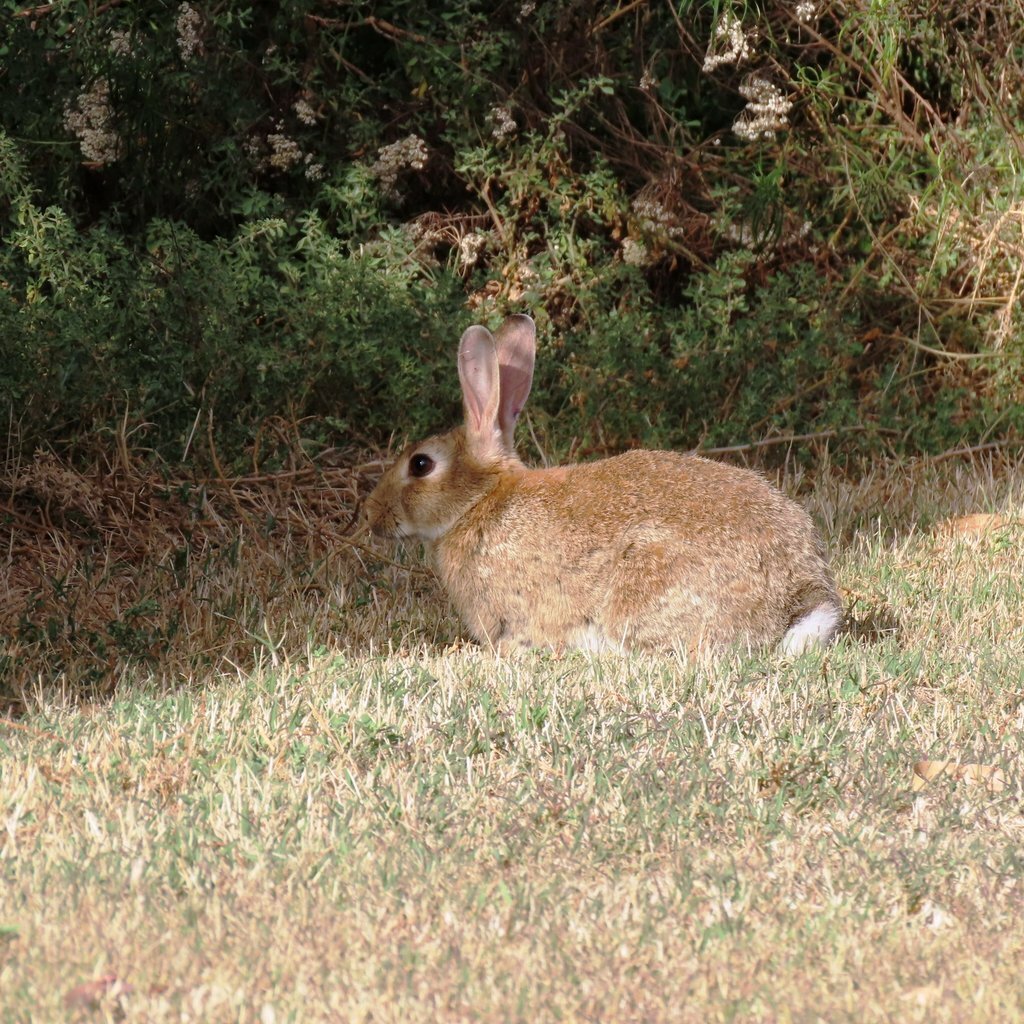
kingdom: Animalia
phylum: Chordata
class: Mammalia
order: Lagomorpha
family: Leporidae
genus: Oryctolagus
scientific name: Oryctolagus cuniculus
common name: European rabbit
